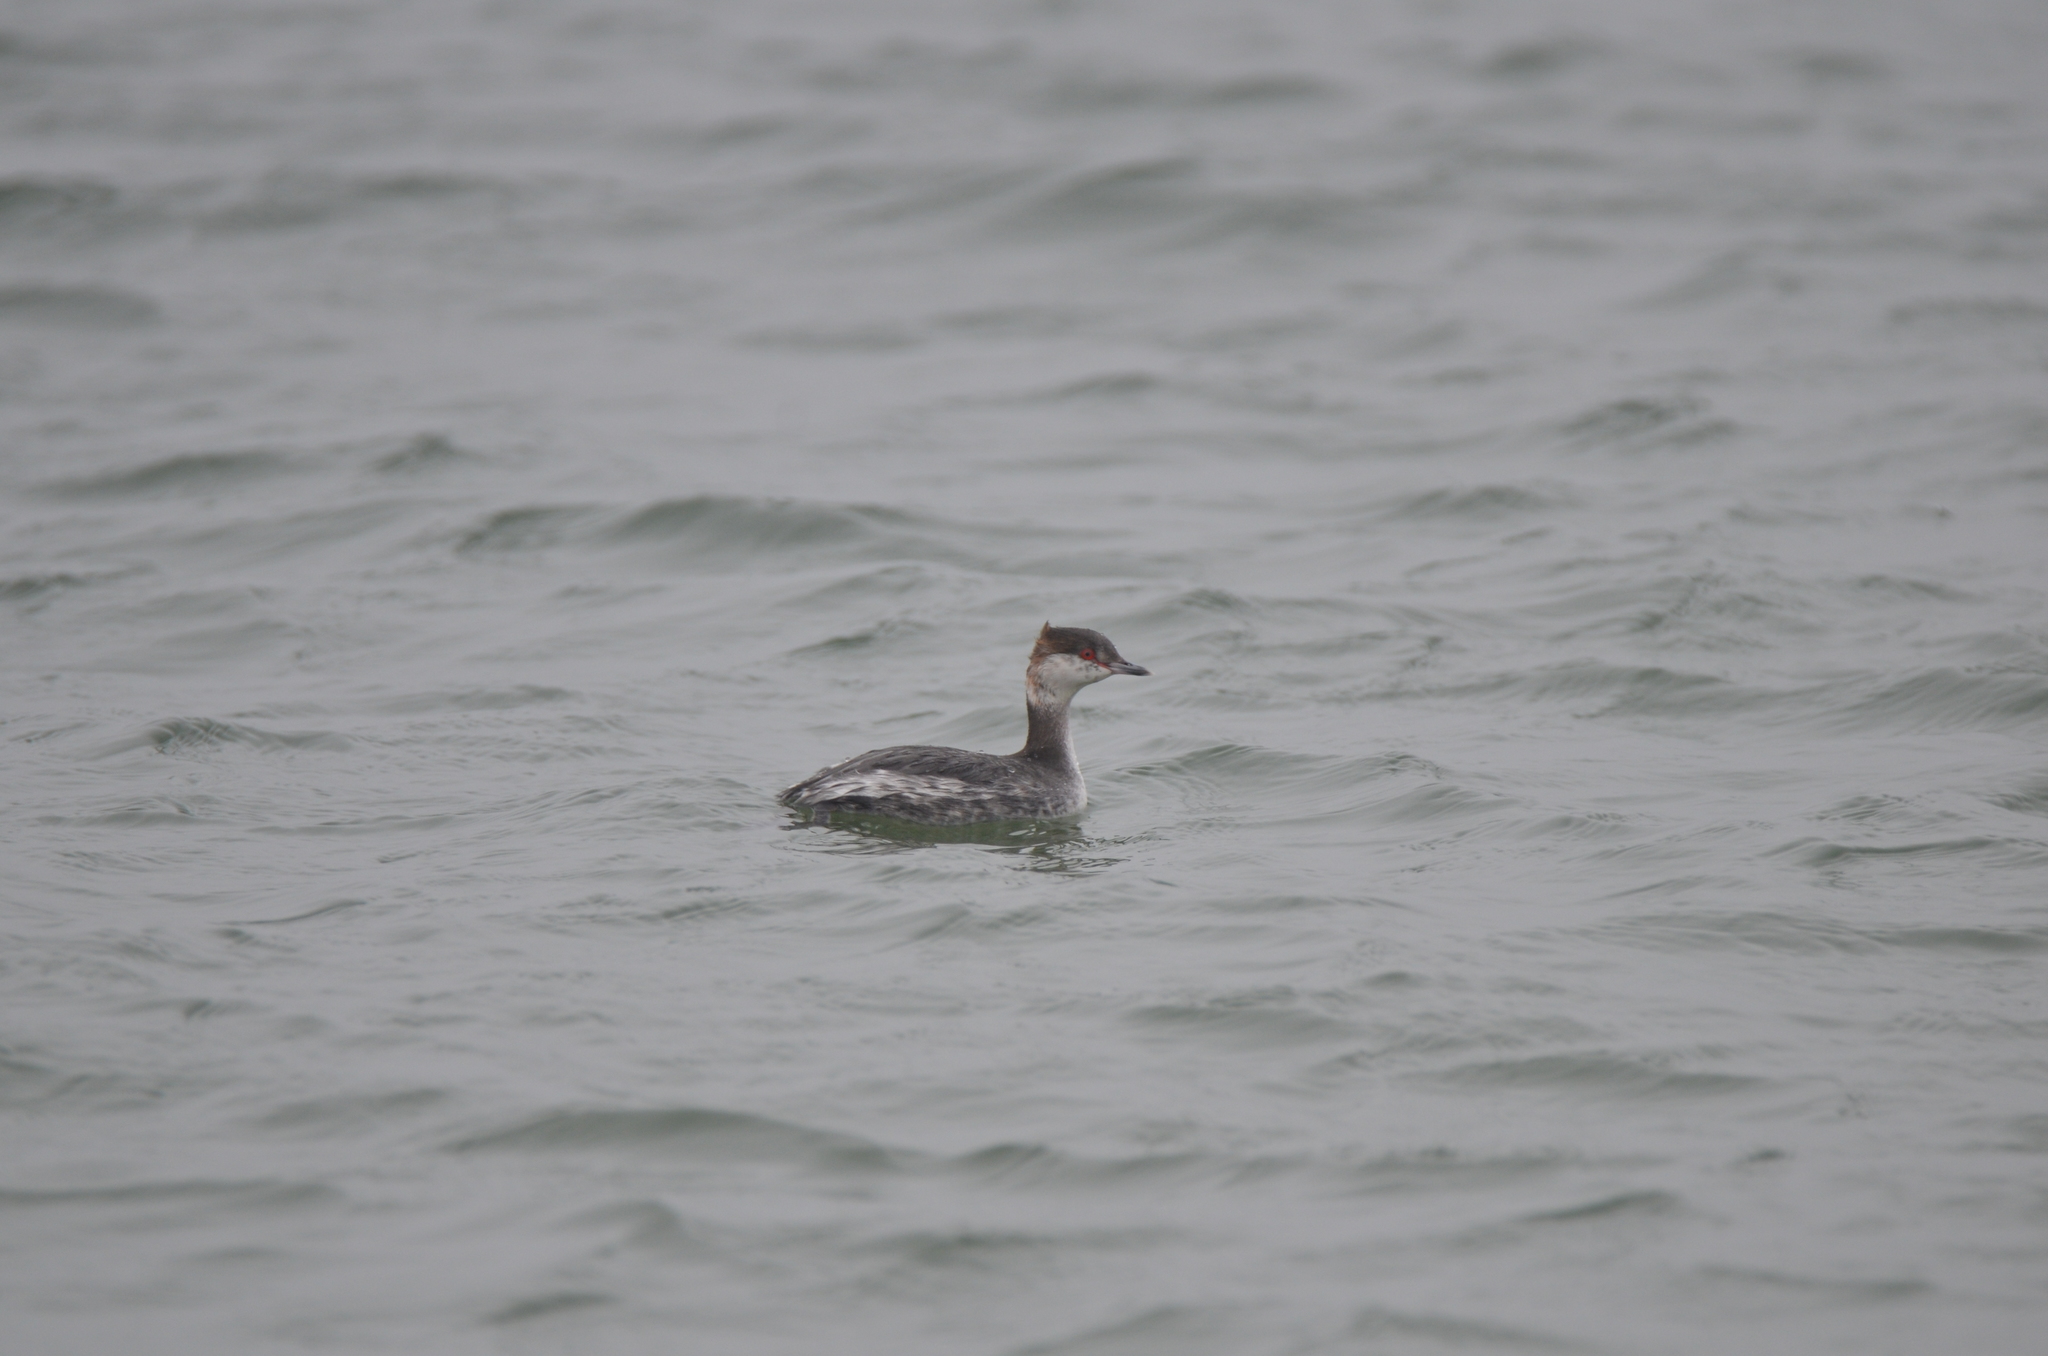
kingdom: Animalia
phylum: Chordata
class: Aves
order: Podicipediformes
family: Podicipedidae
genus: Podiceps
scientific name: Podiceps auritus
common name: Horned grebe
